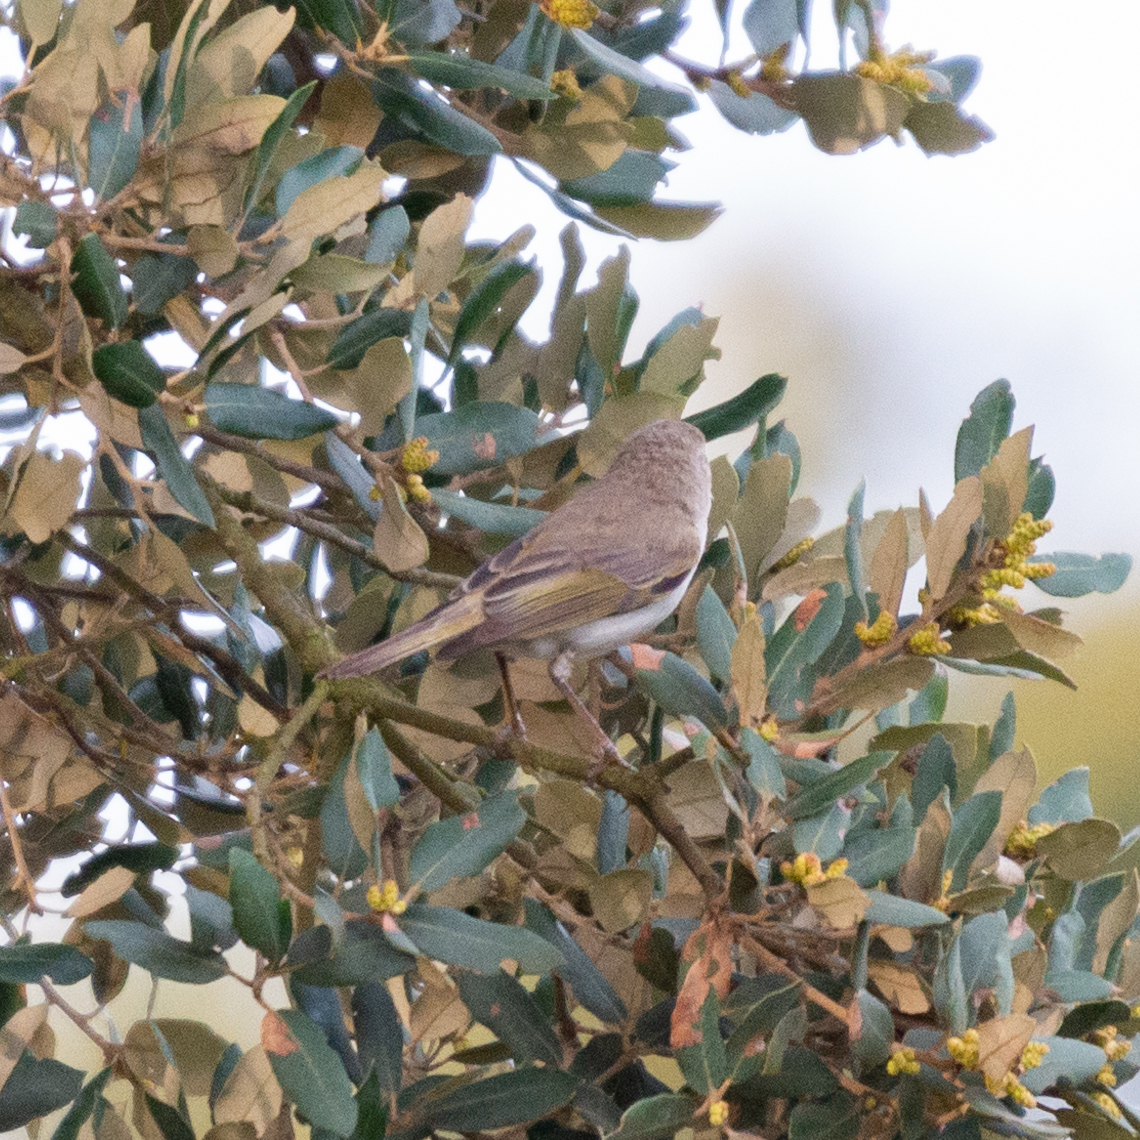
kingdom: Animalia
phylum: Chordata
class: Aves
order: Passeriformes
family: Phylloscopidae
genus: Phylloscopus
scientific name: Phylloscopus bonelli
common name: Western bonelli's warbler
